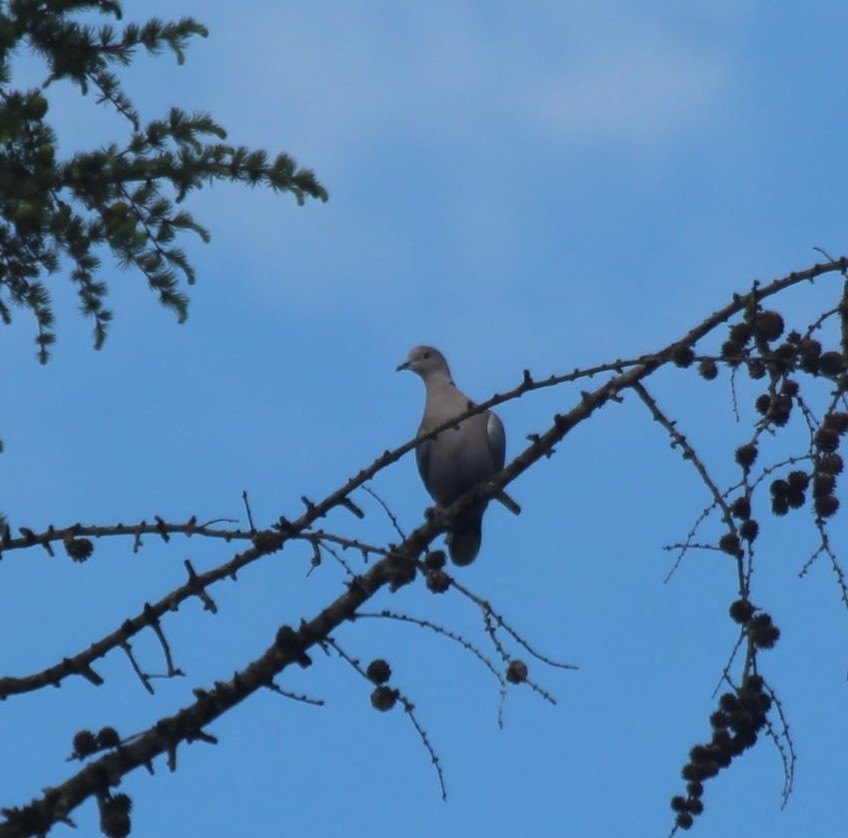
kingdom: Animalia
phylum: Chordata
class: Aves
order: Columbiformes
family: Columbidae
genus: Streptopelia
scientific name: Streptopelia decaocto
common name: Eurasian collared dove
